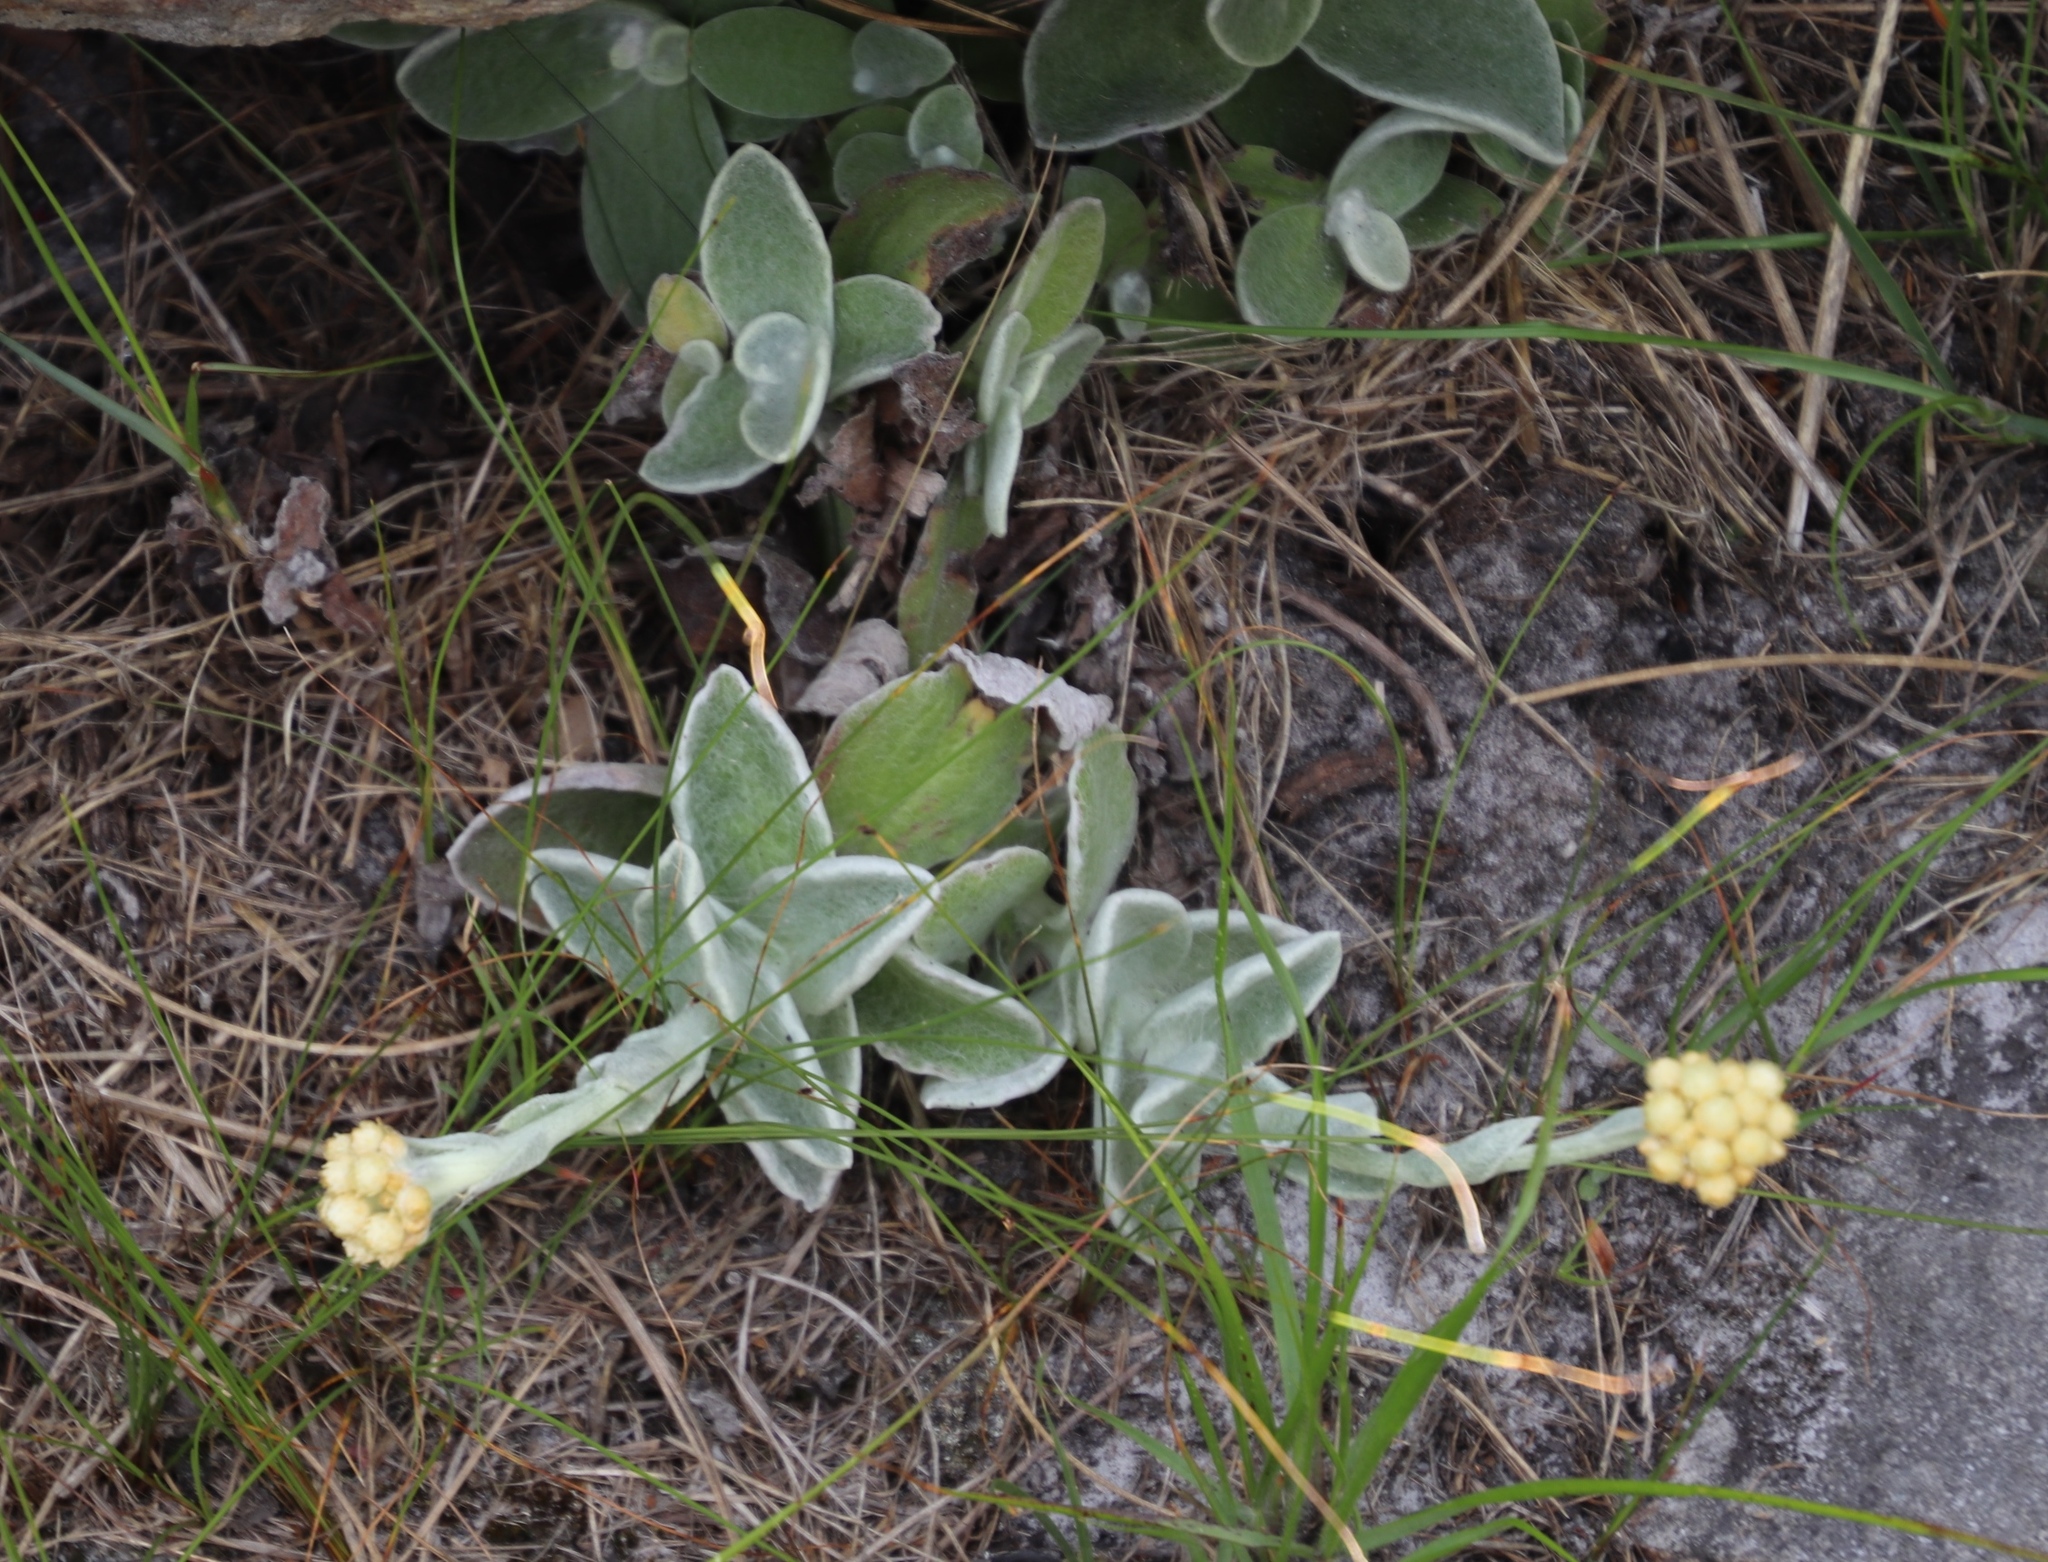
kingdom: Plantae
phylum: Tracheophyta
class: Magnoliopsida
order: Asterales
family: Asteraceae
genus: Helichrysum
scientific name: Helichrysum grandiflorum
